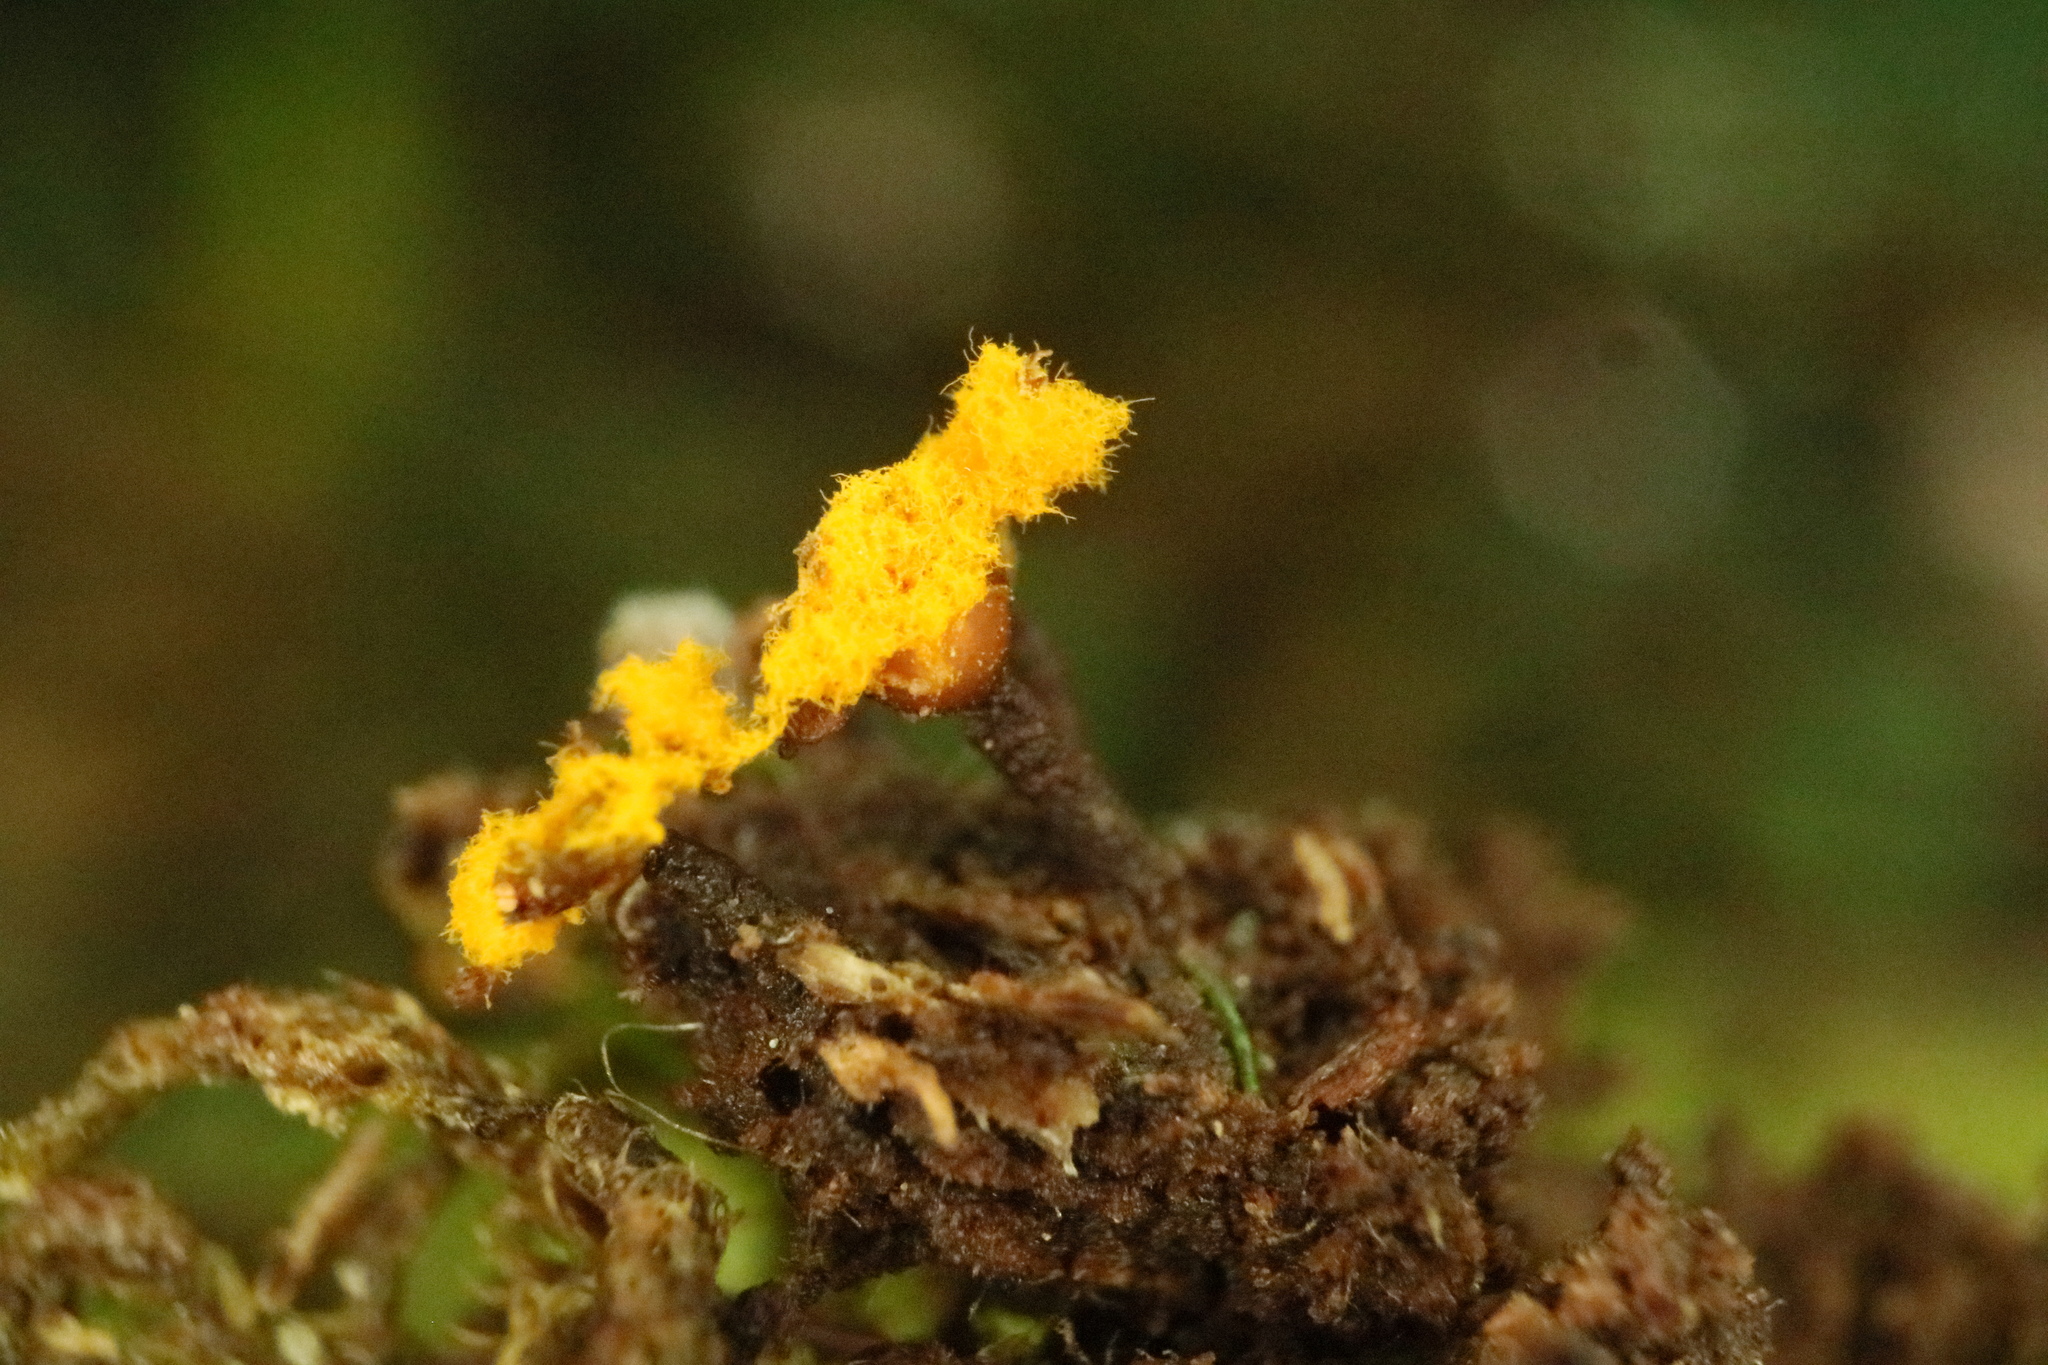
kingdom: Protozoa
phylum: Mycetozoa
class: Myxomycetes
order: Trichiales
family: Trichiaceae
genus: Trichia
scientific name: Trichia erecta
